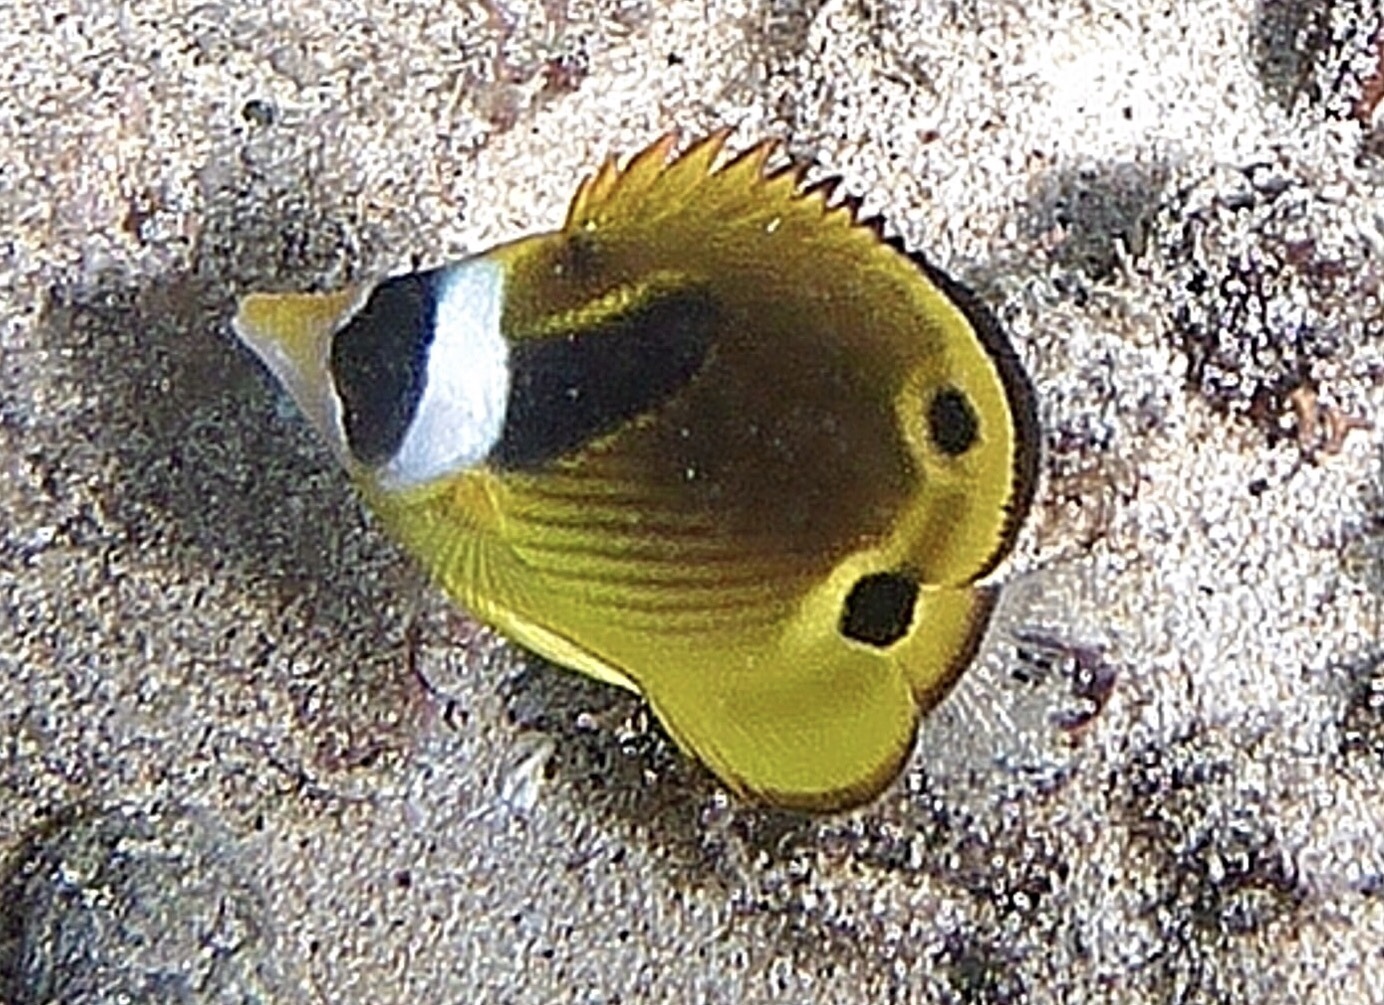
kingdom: Animalia
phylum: Chordata
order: Perciformes
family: Chaetodontidae
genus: Chaetodon
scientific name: Chaetodon lunula
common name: Raccoon butterflyfish
